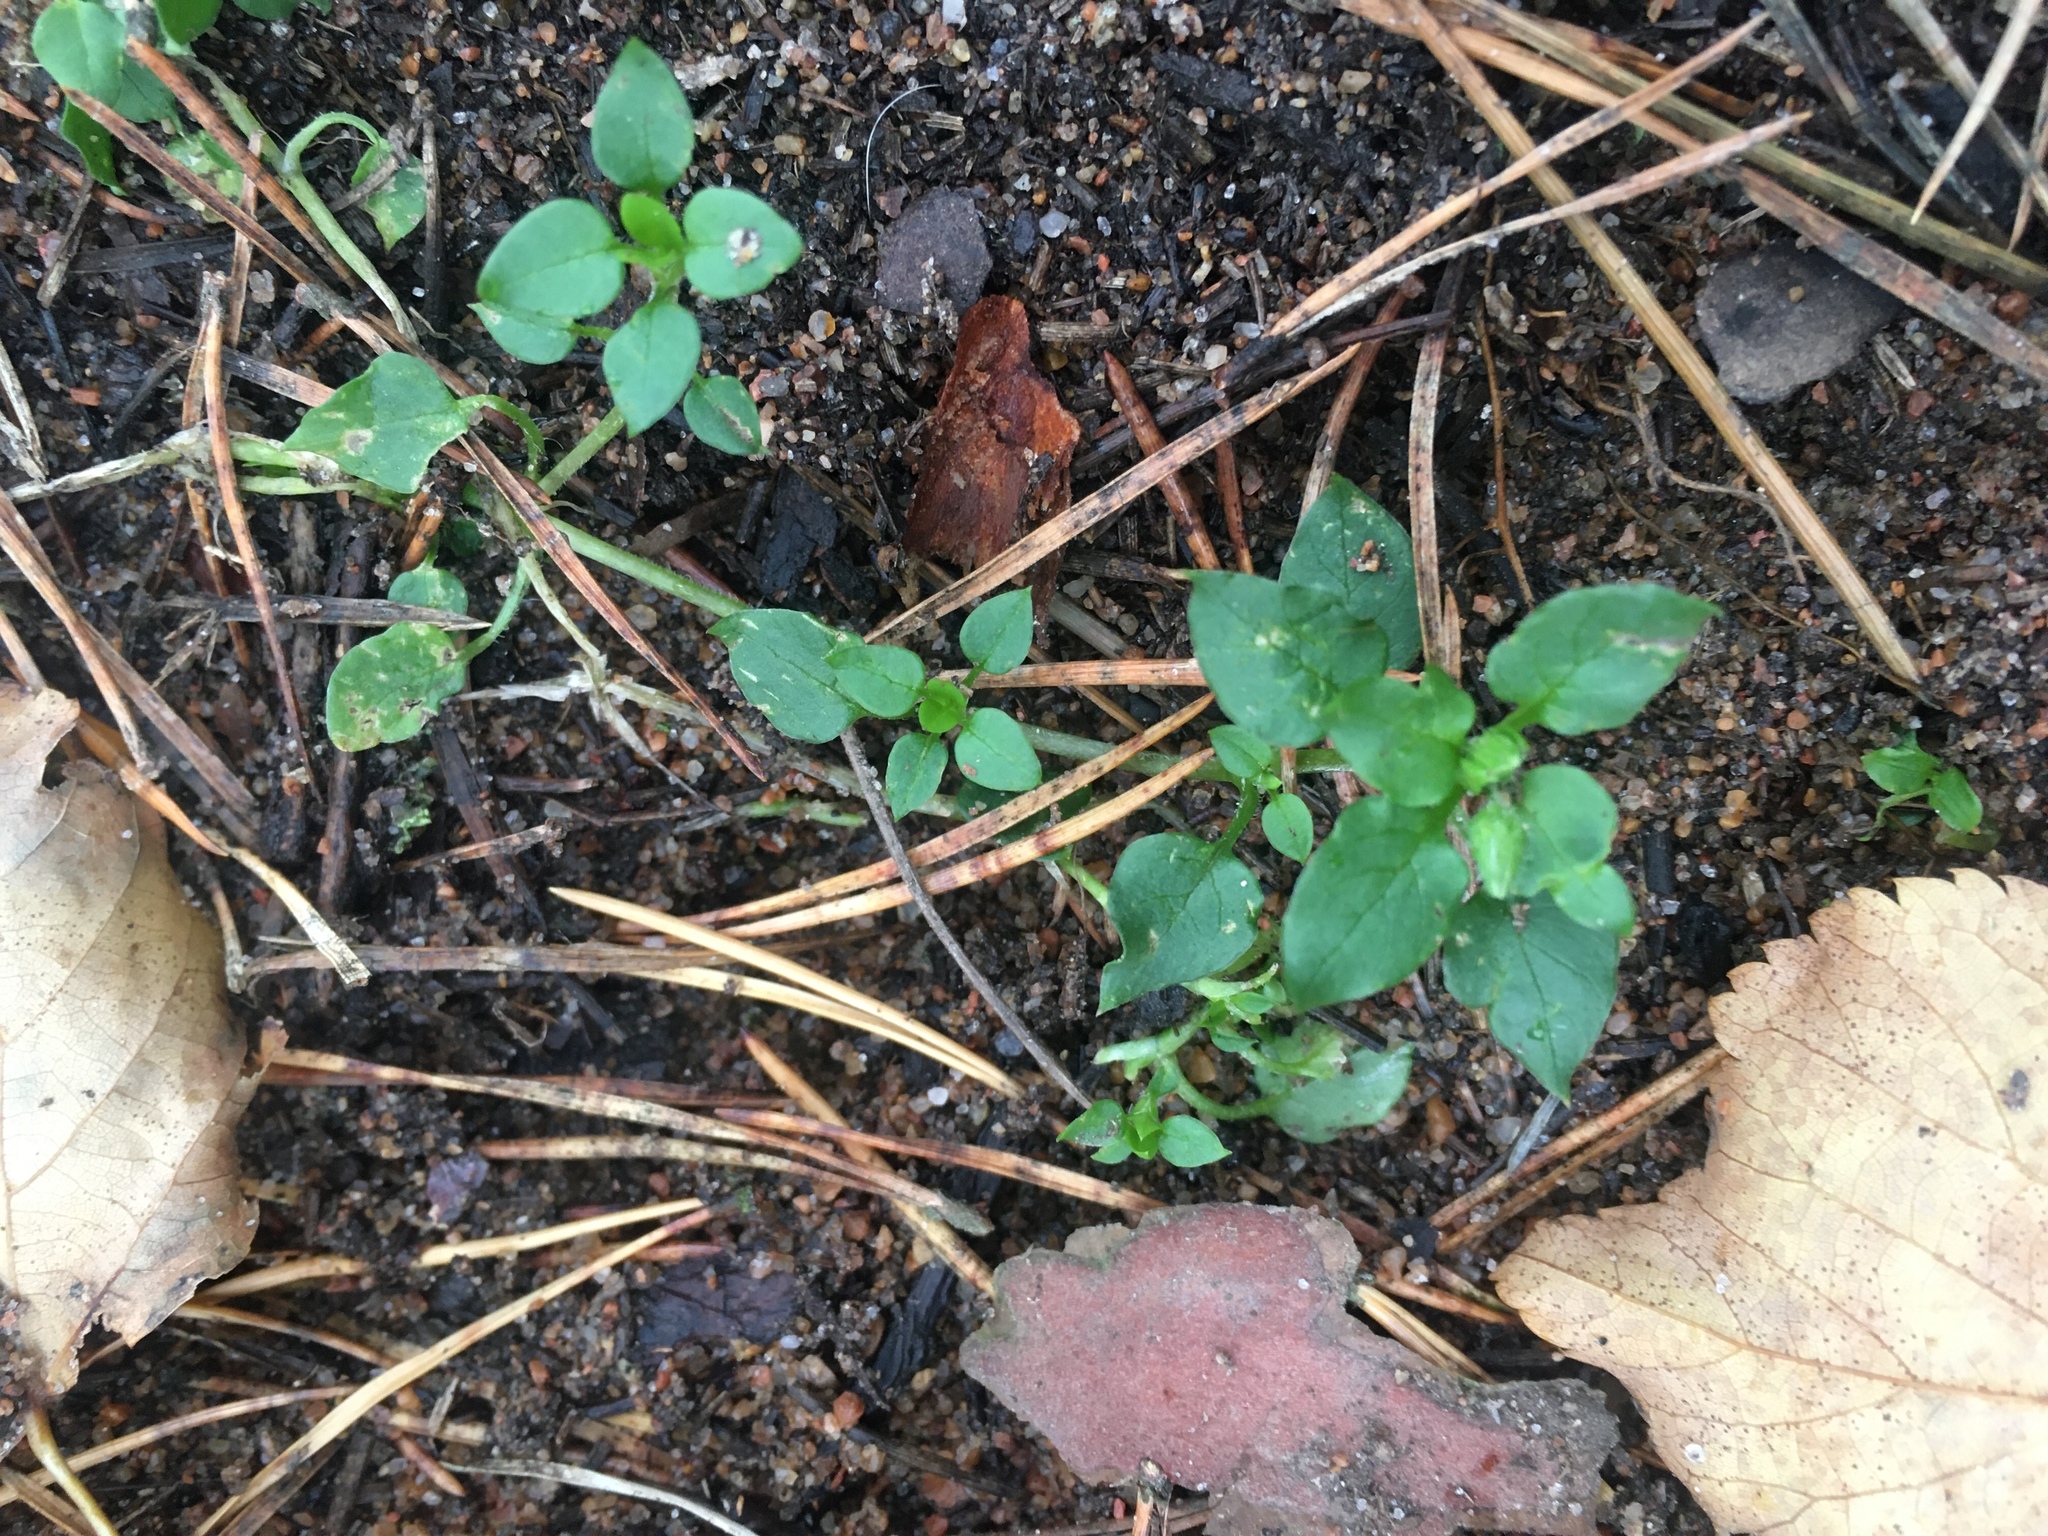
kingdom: Plantae
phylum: Tracheophyta
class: Magnoliopsida
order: Caryophyllales
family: Caryophyllaceae
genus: Stellaria
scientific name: Stellaria media
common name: Common chickweed
